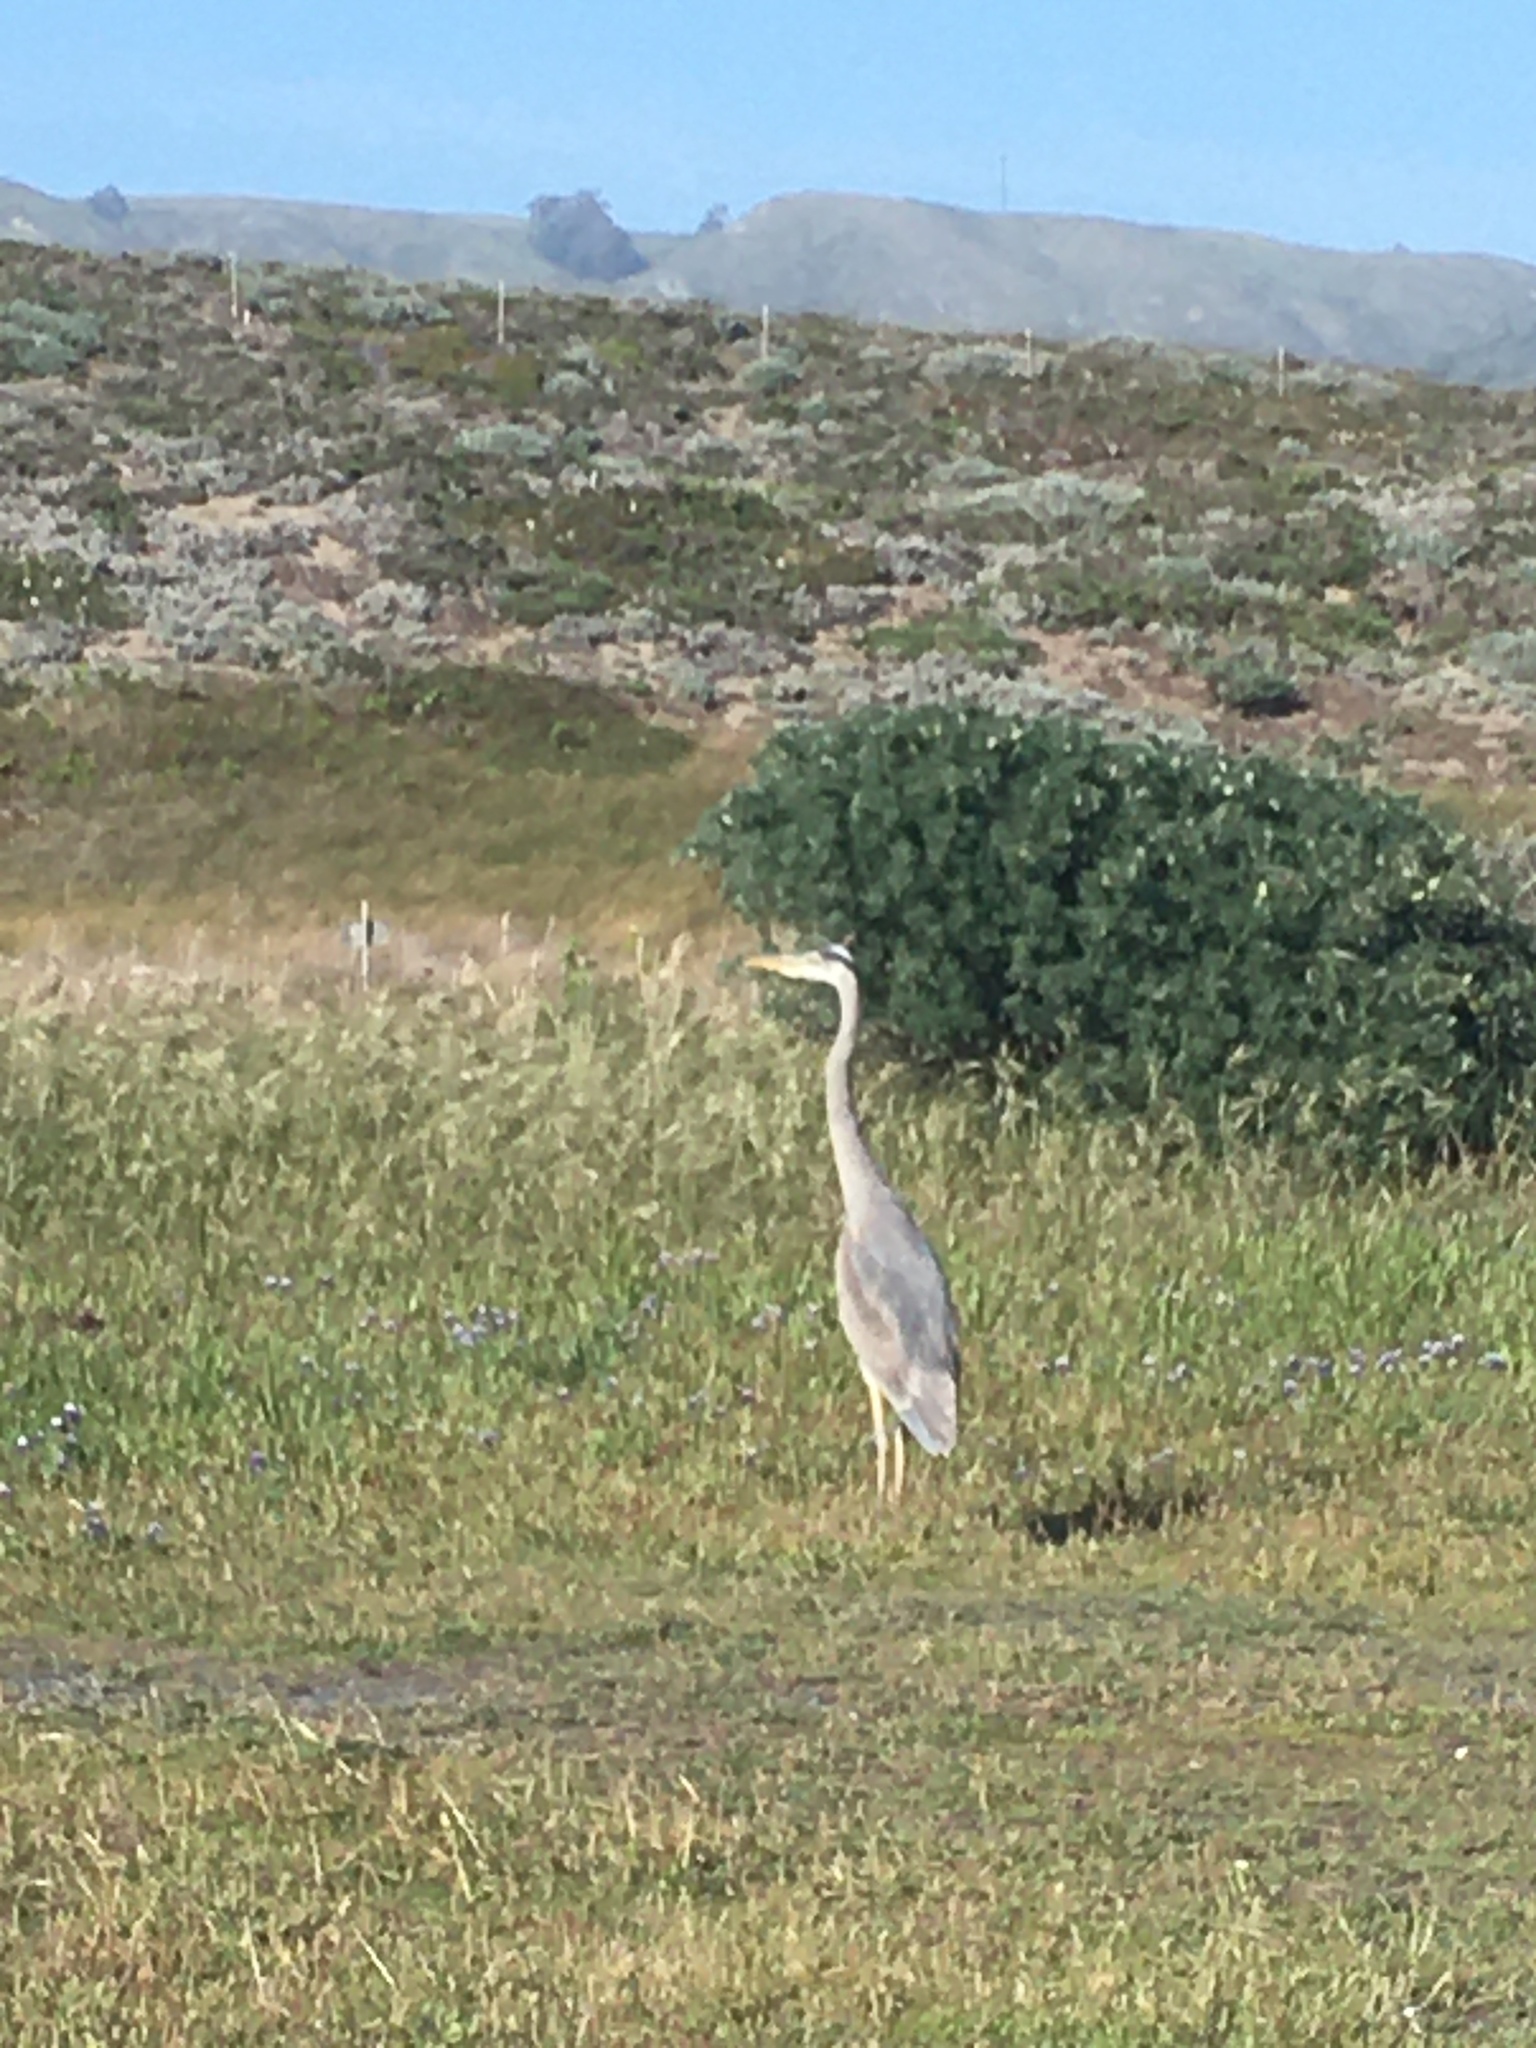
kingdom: Animalia
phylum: Chordata
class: Aves
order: Pelecaniformes
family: Ardeidae
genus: Ardea
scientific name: Ardea herodias
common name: Great blue heron
